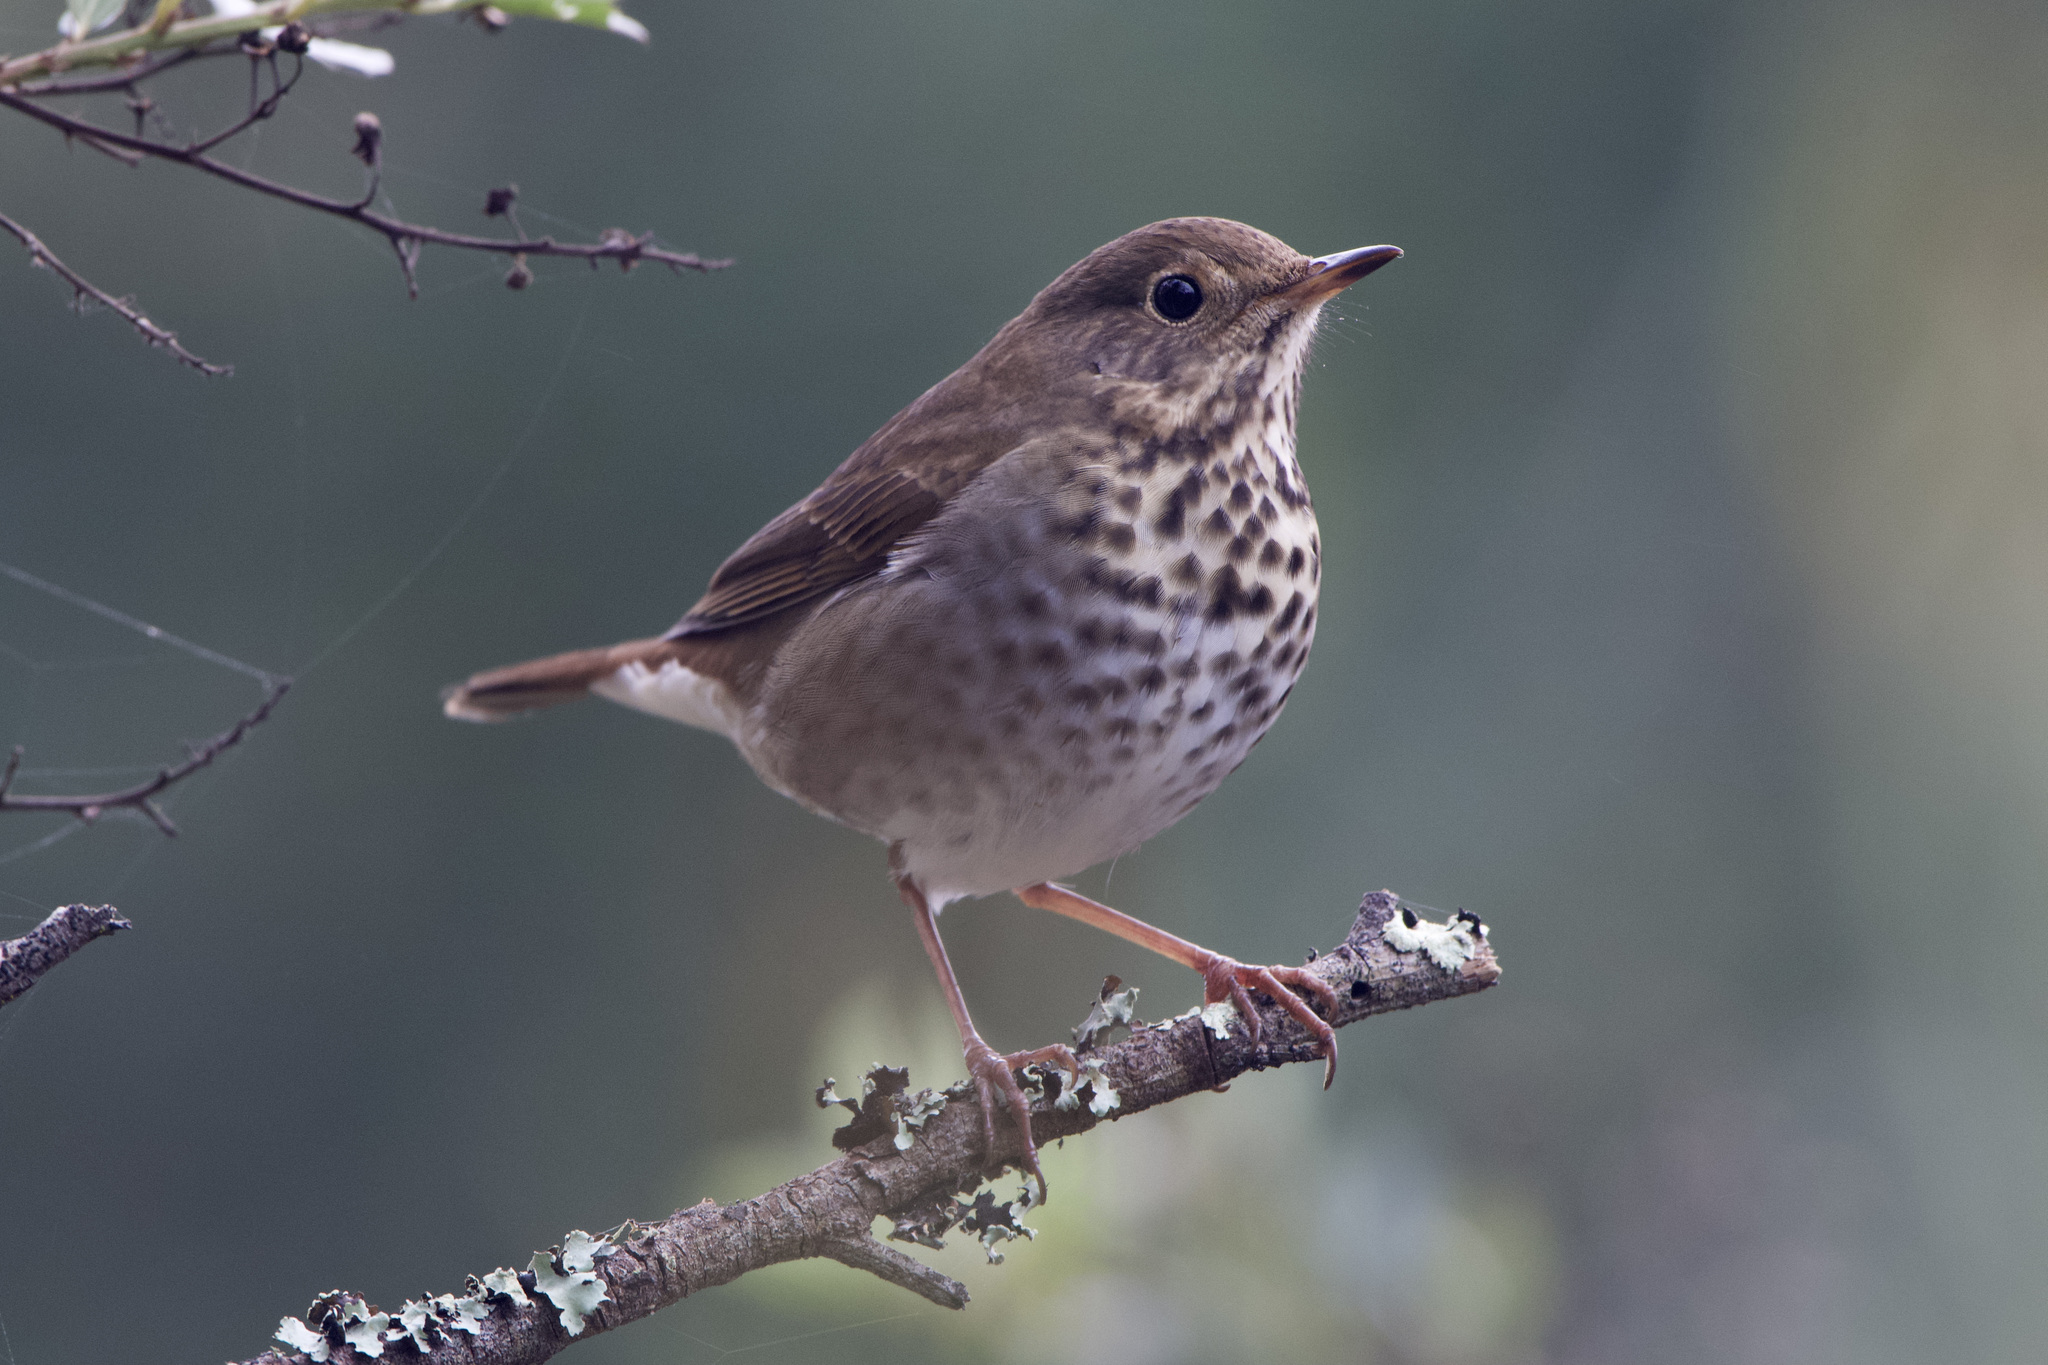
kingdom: Animalia
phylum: Chordata
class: Aves
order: Passeriformes
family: Turdidae
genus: Catharus
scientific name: Catharus guttatus
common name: Hermit thrush
